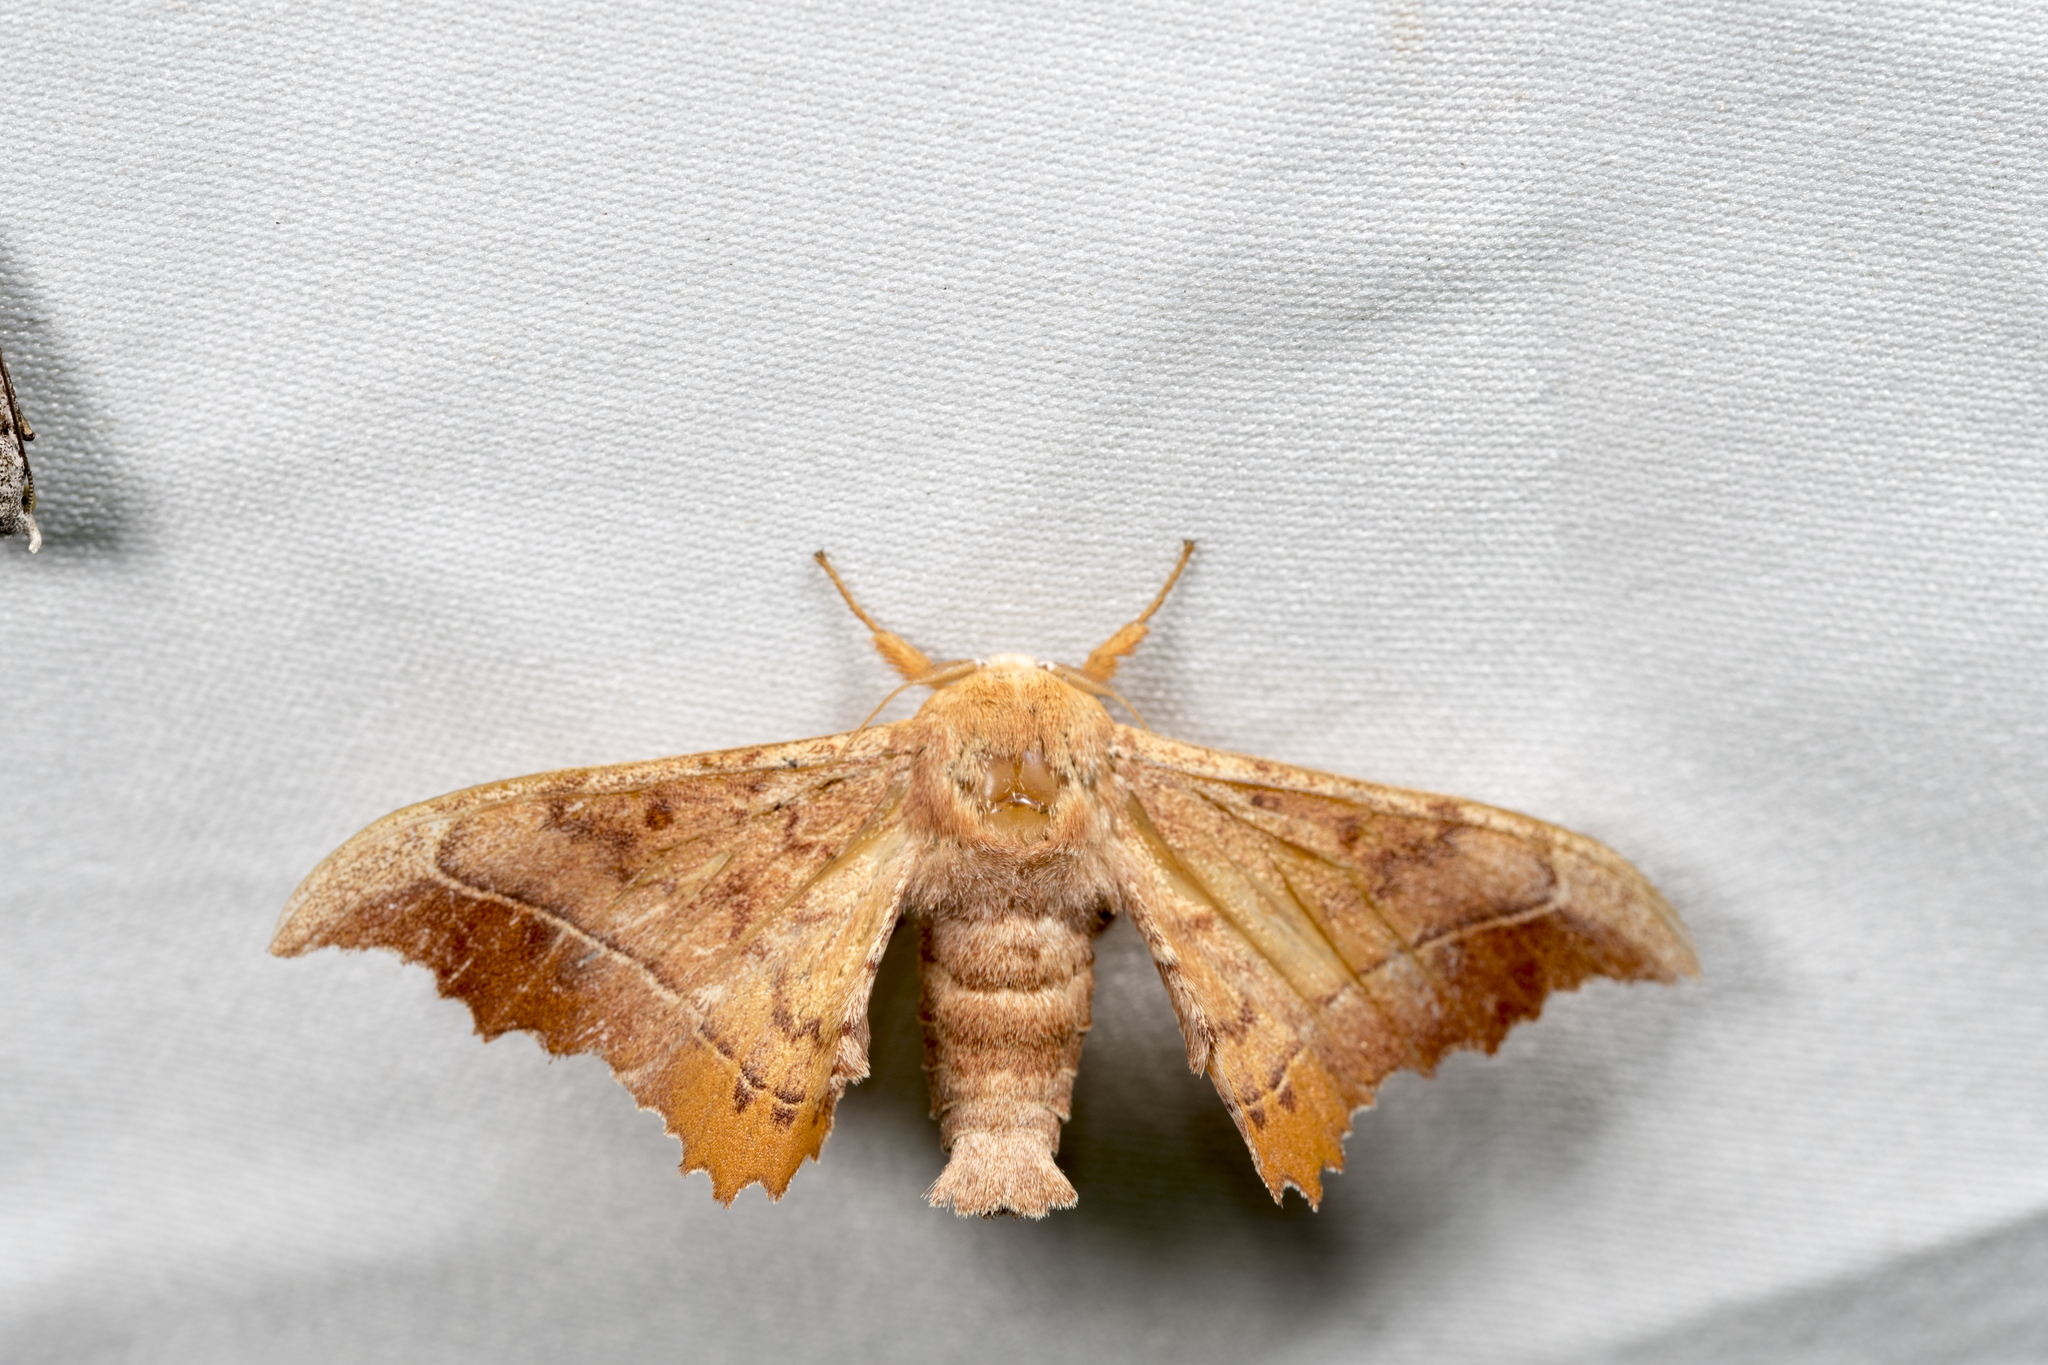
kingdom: Animalia
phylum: Arthropoda
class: Insecta
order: Lepidoptera
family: Endromidae
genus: Oberthueria
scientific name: Oberthueria formosibia
